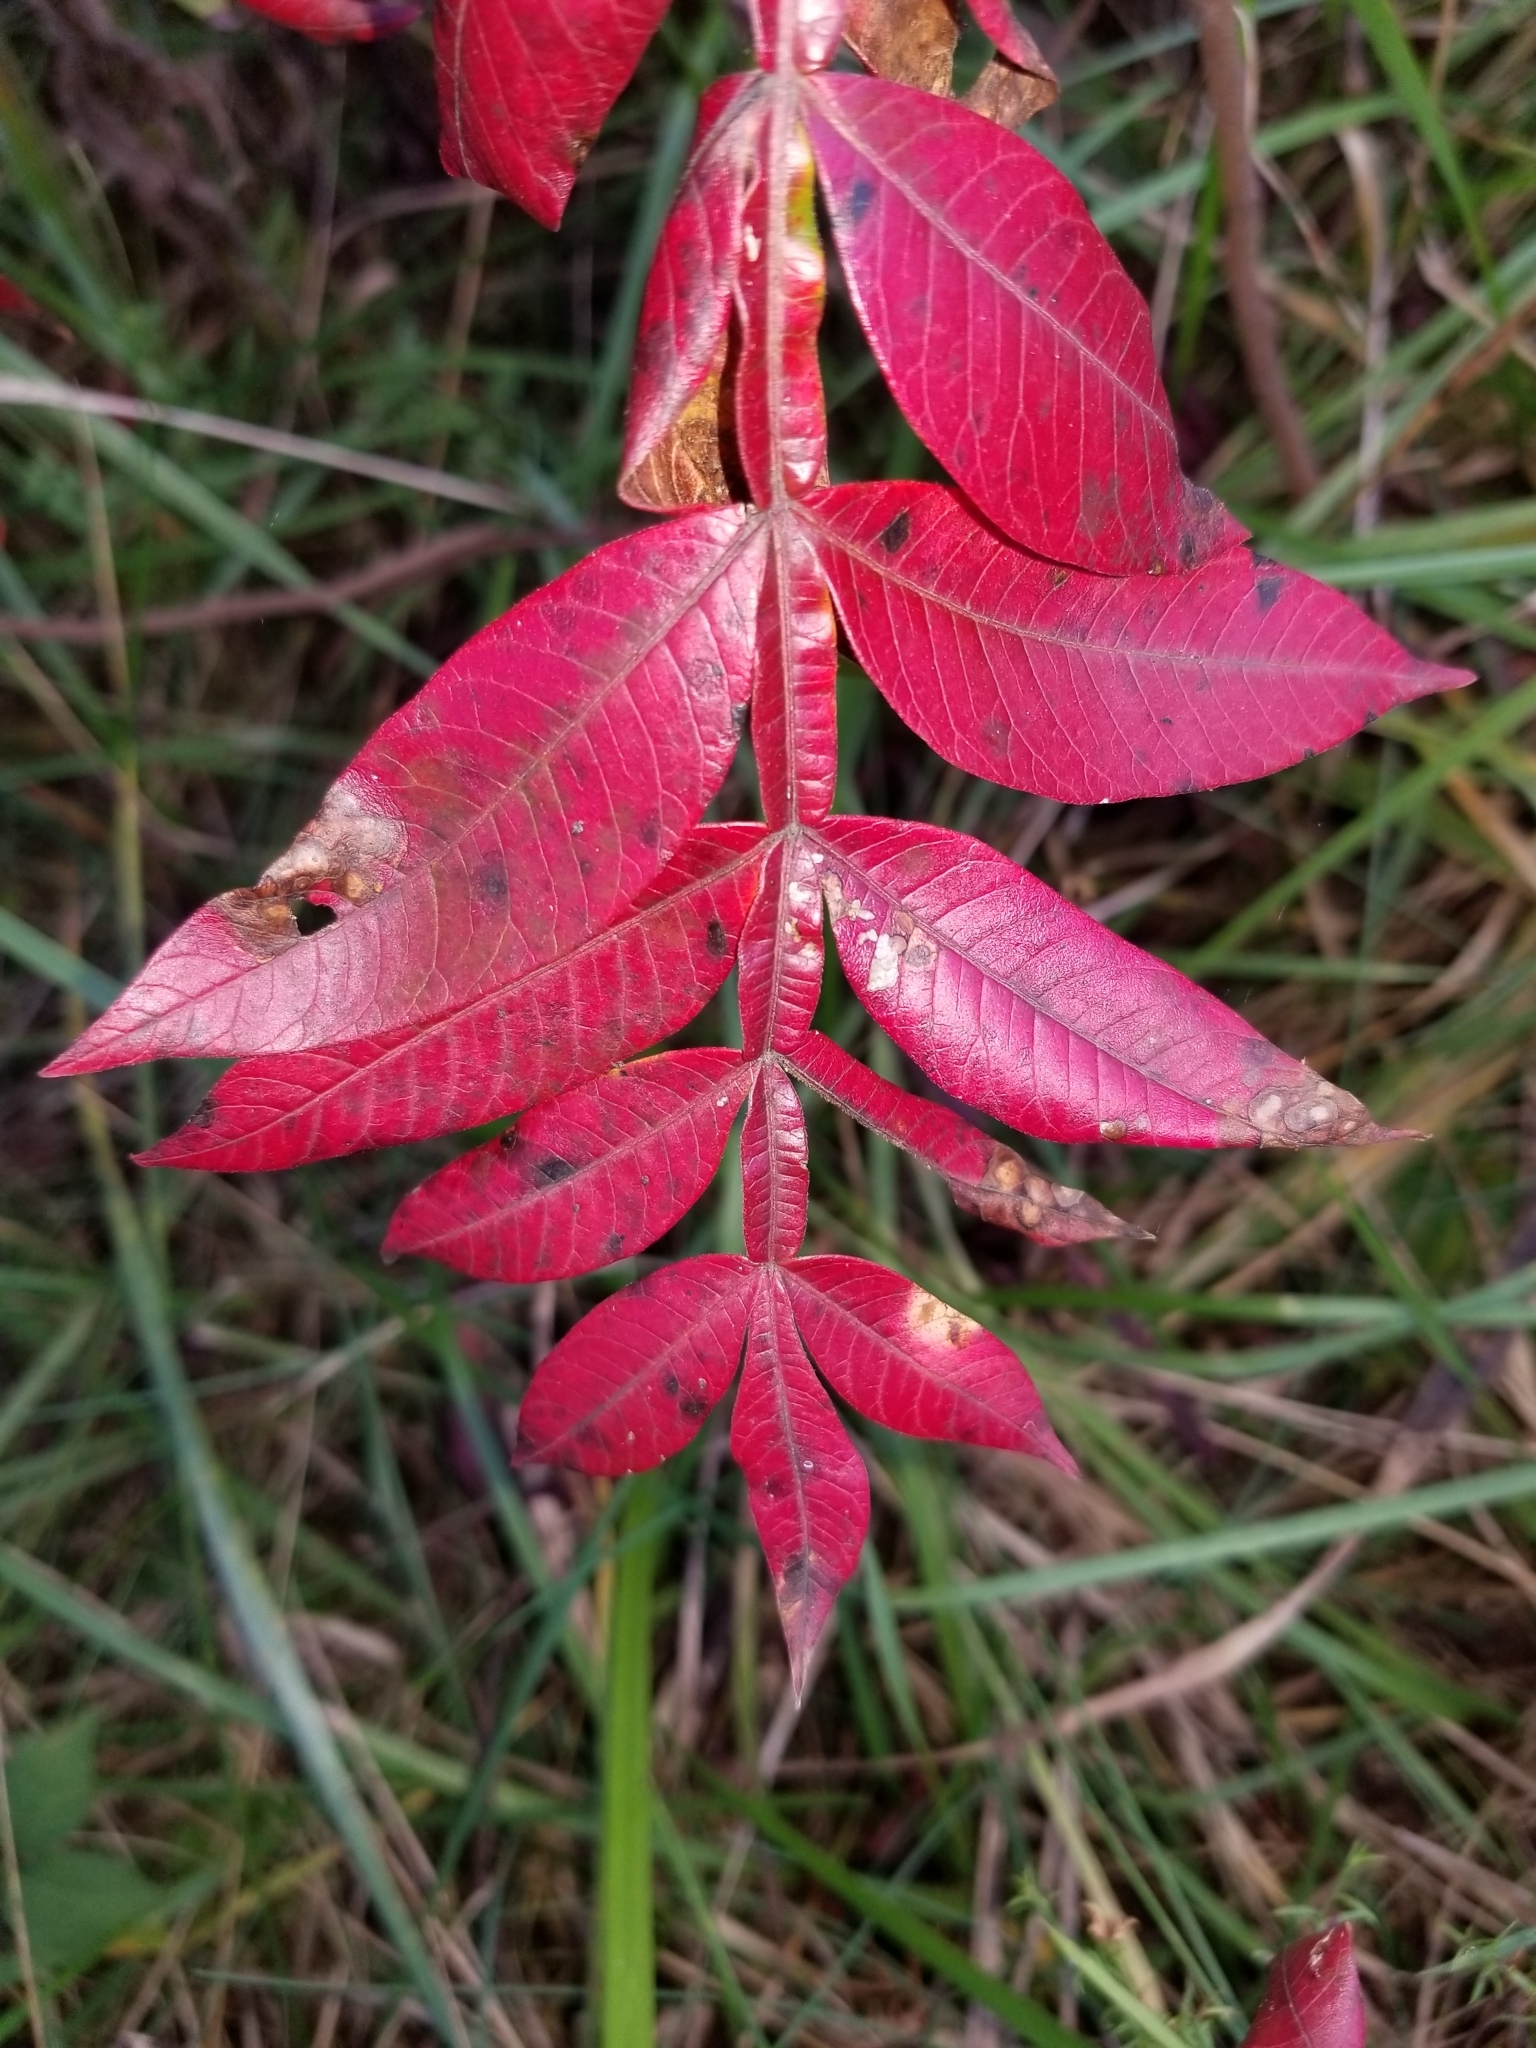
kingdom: Plantae
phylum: Tracheophyta
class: Magnoliopsida
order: Sapindales
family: Anacardiaceae
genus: Rhus
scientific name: Rhus copallina
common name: Shining sumac
